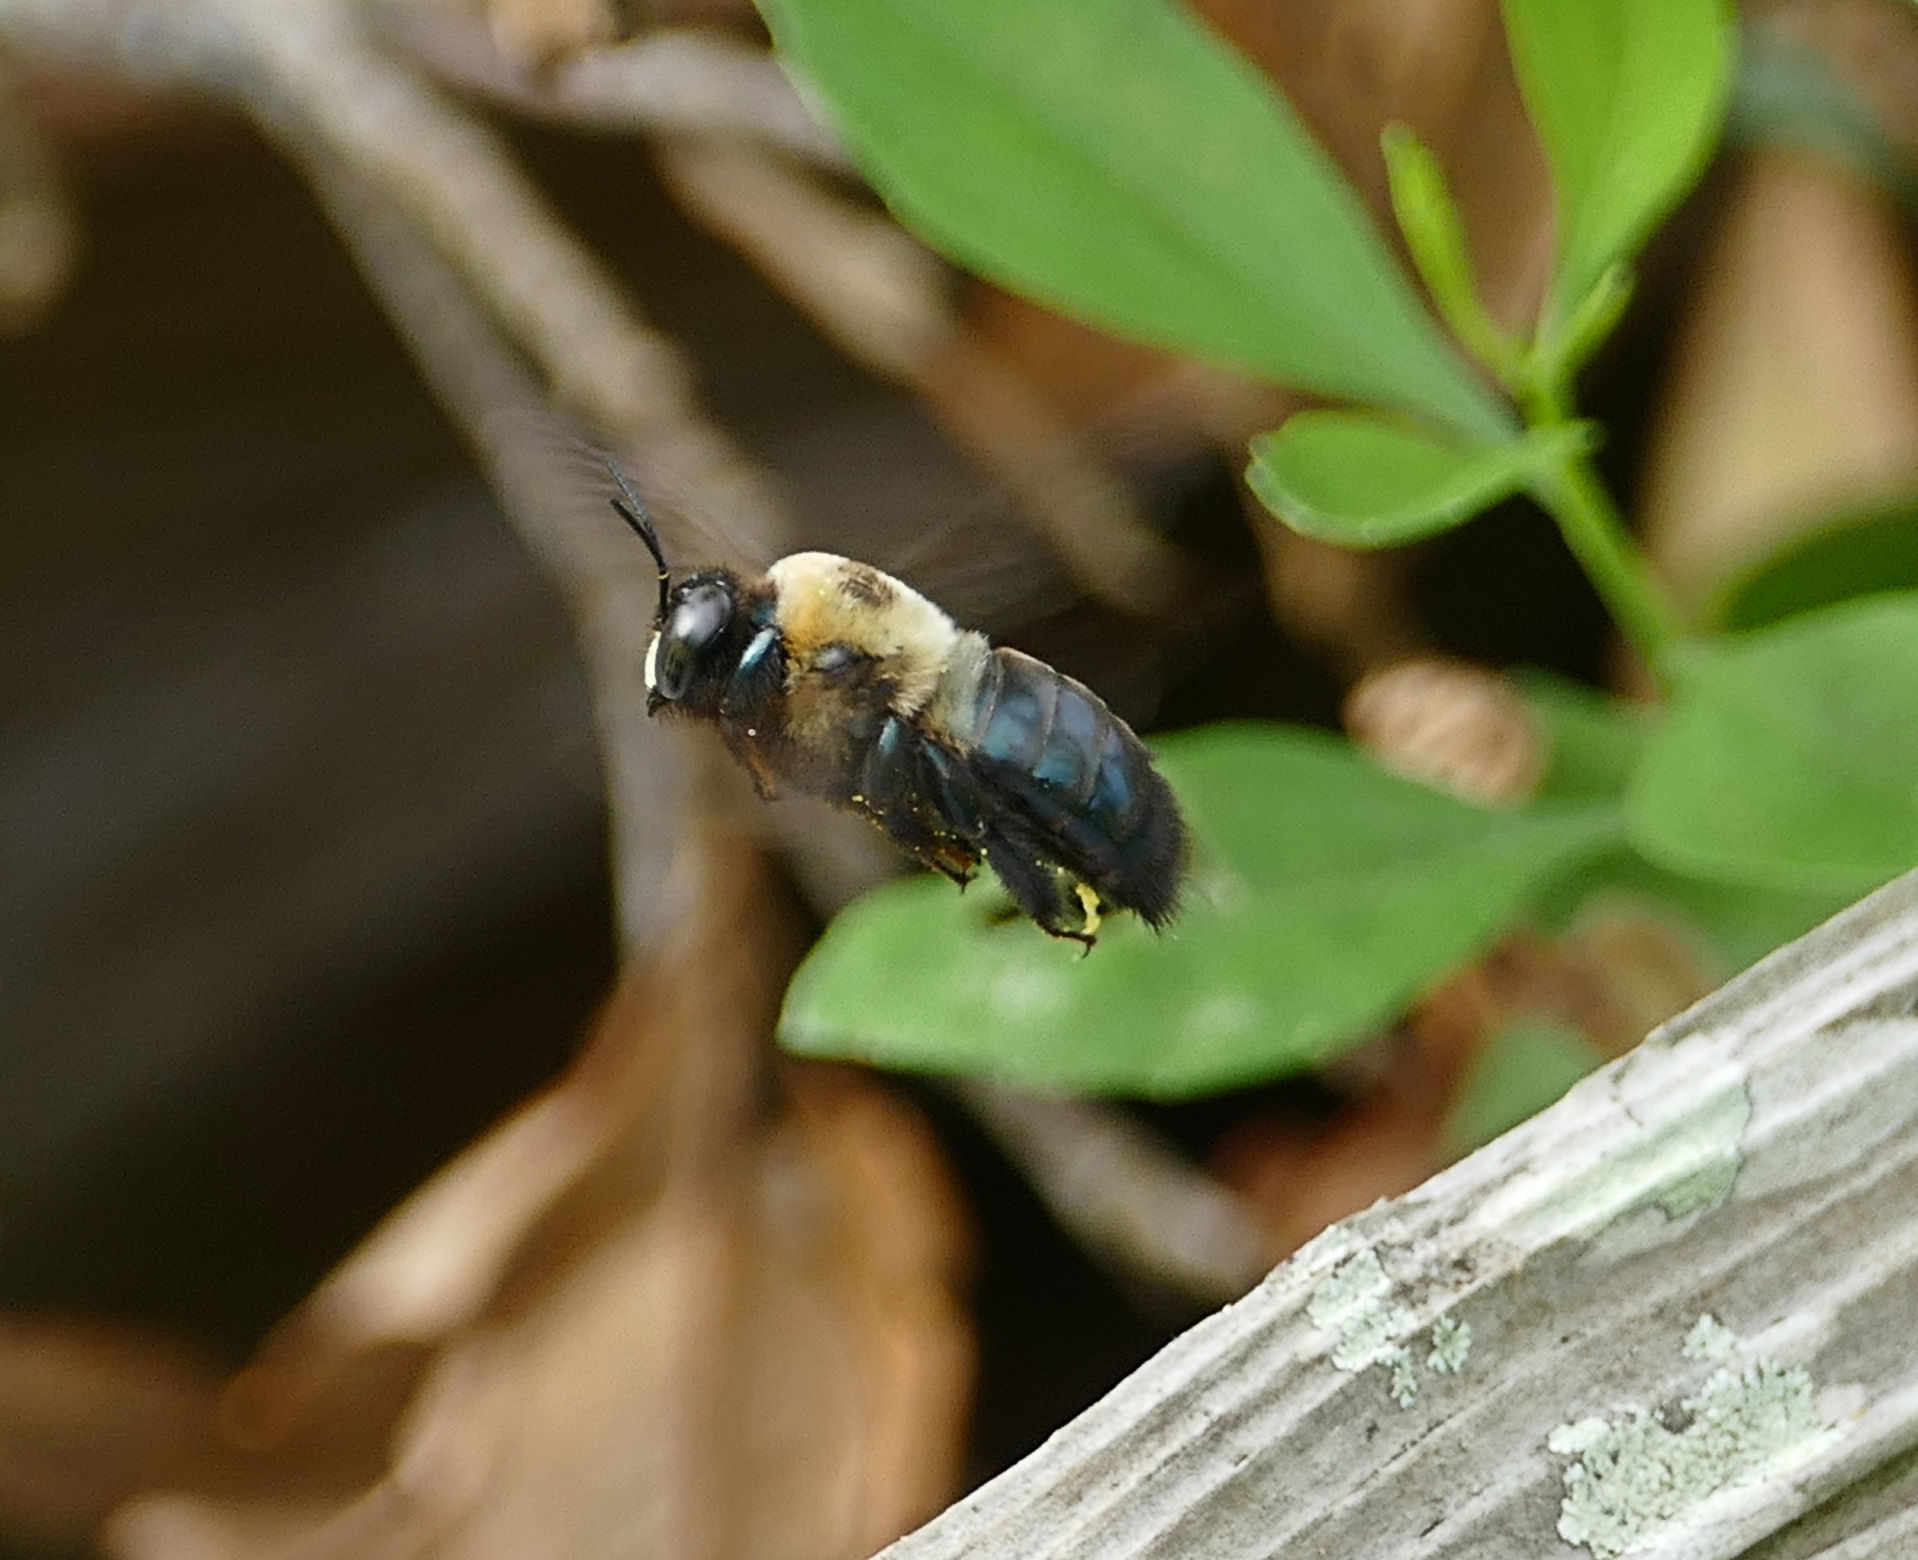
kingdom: Animalia
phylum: Arthropoda
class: Insecta
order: Hymenoptera
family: Apidae
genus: Xylocopa
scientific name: Xylocopa virginica
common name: Carpenter bee
